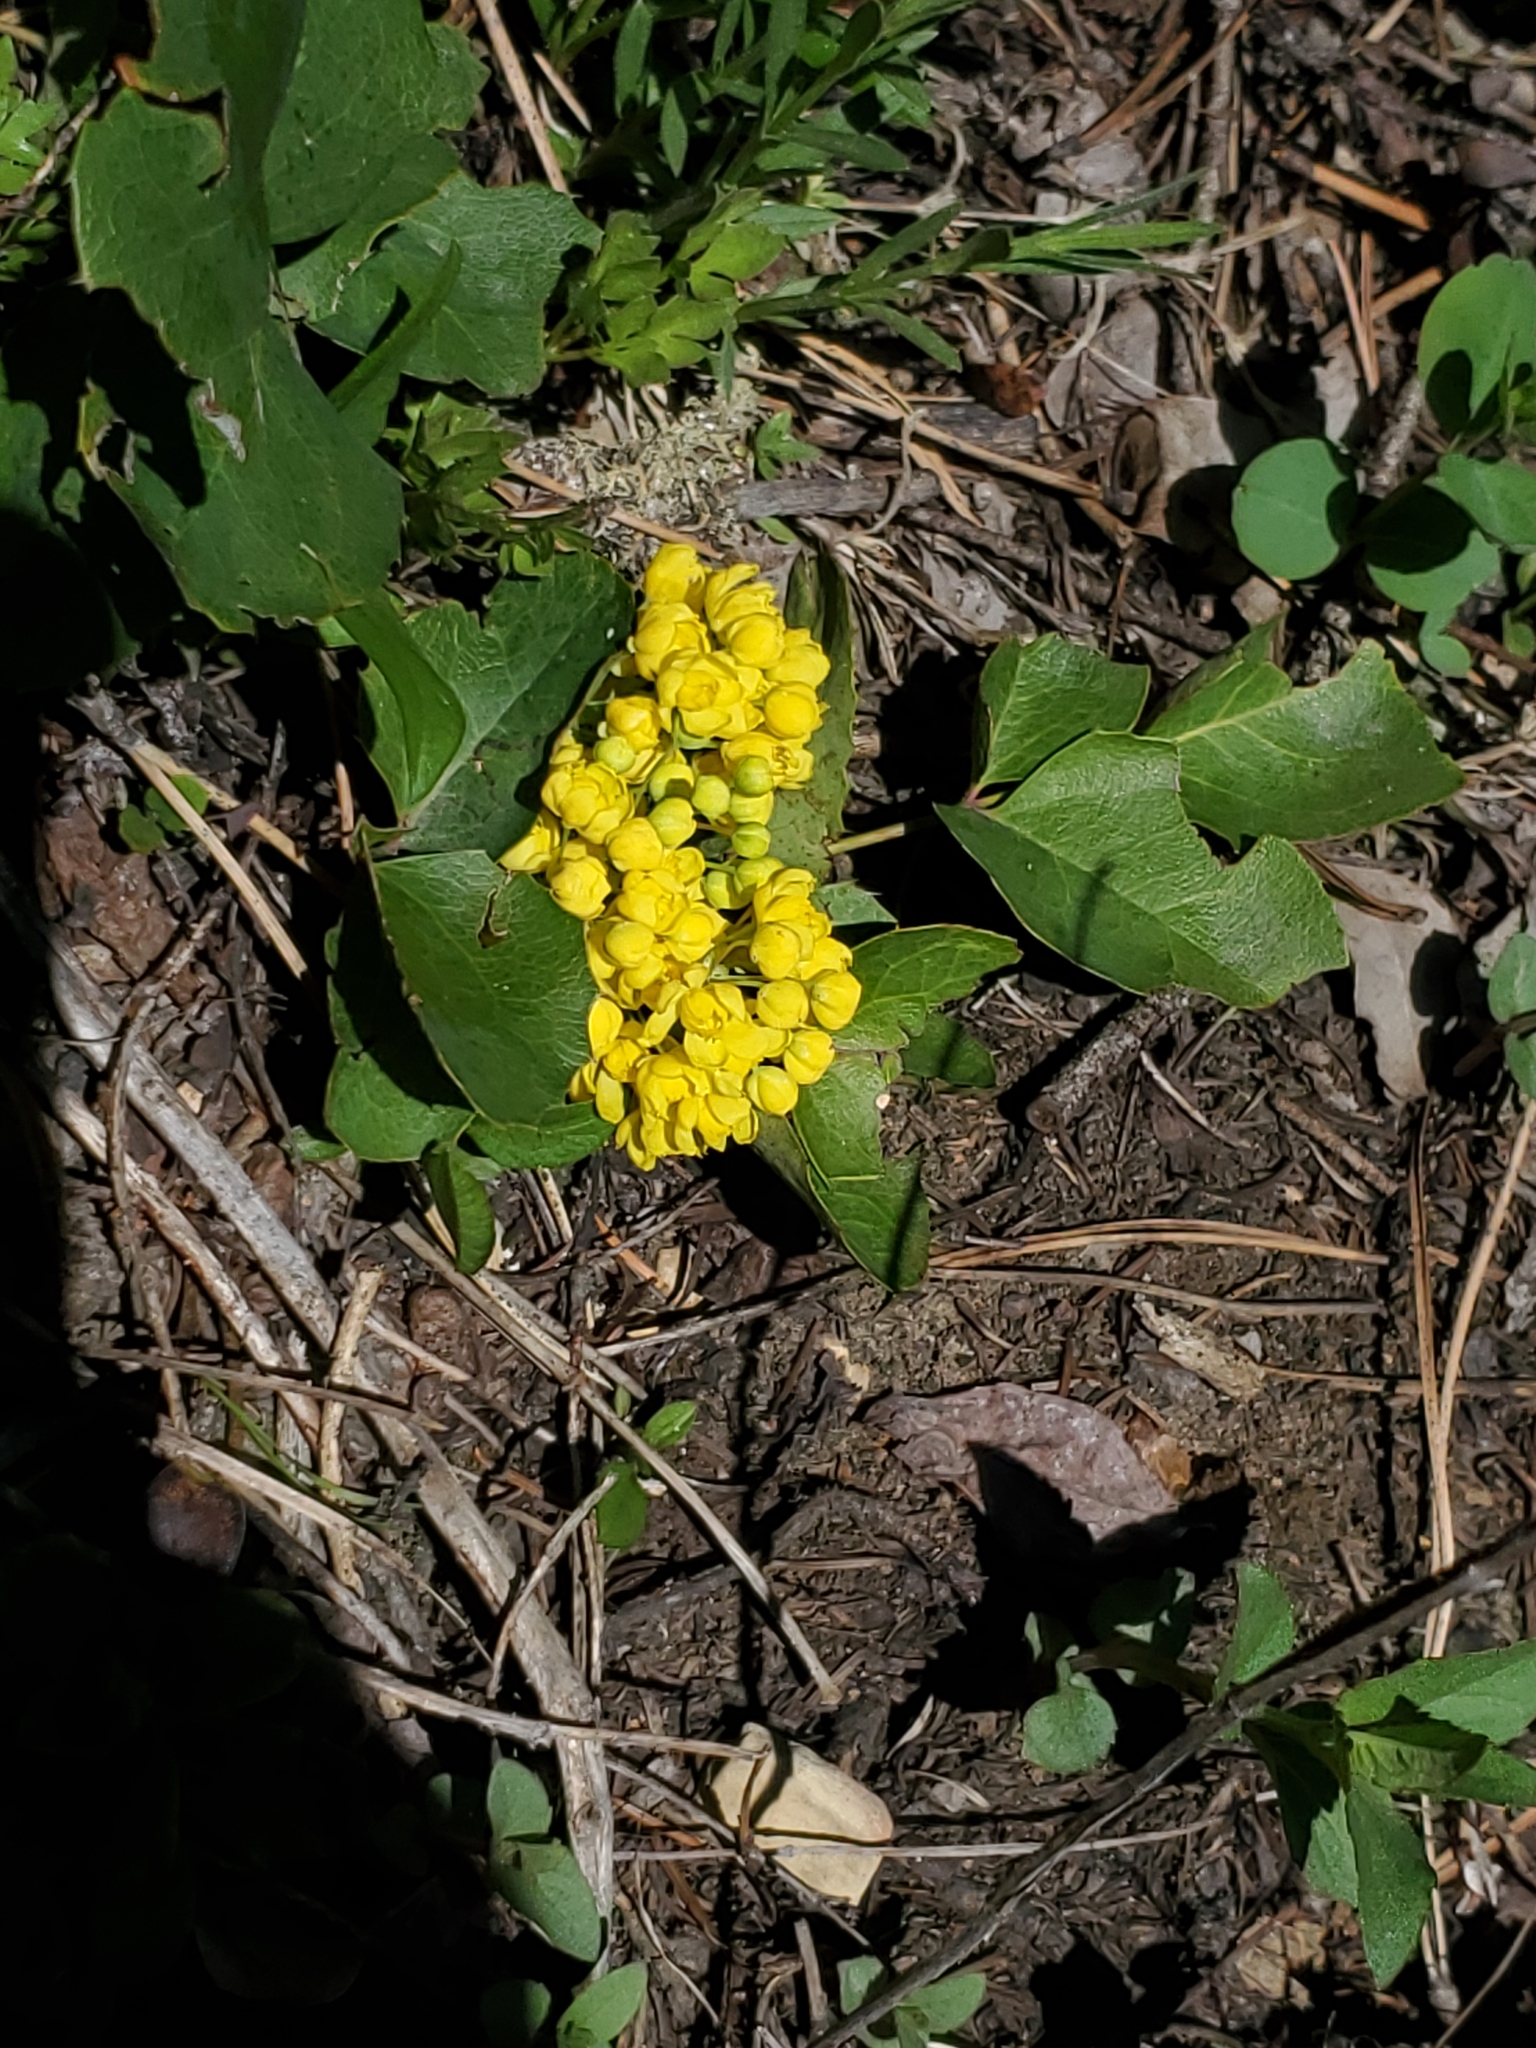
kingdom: Plantae
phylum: Tracheophyta
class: Magnoliopsida
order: Ranunculales
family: Berberidaceae
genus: Mahonia
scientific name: Mahonia repens
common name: Creeping oregon-grape
